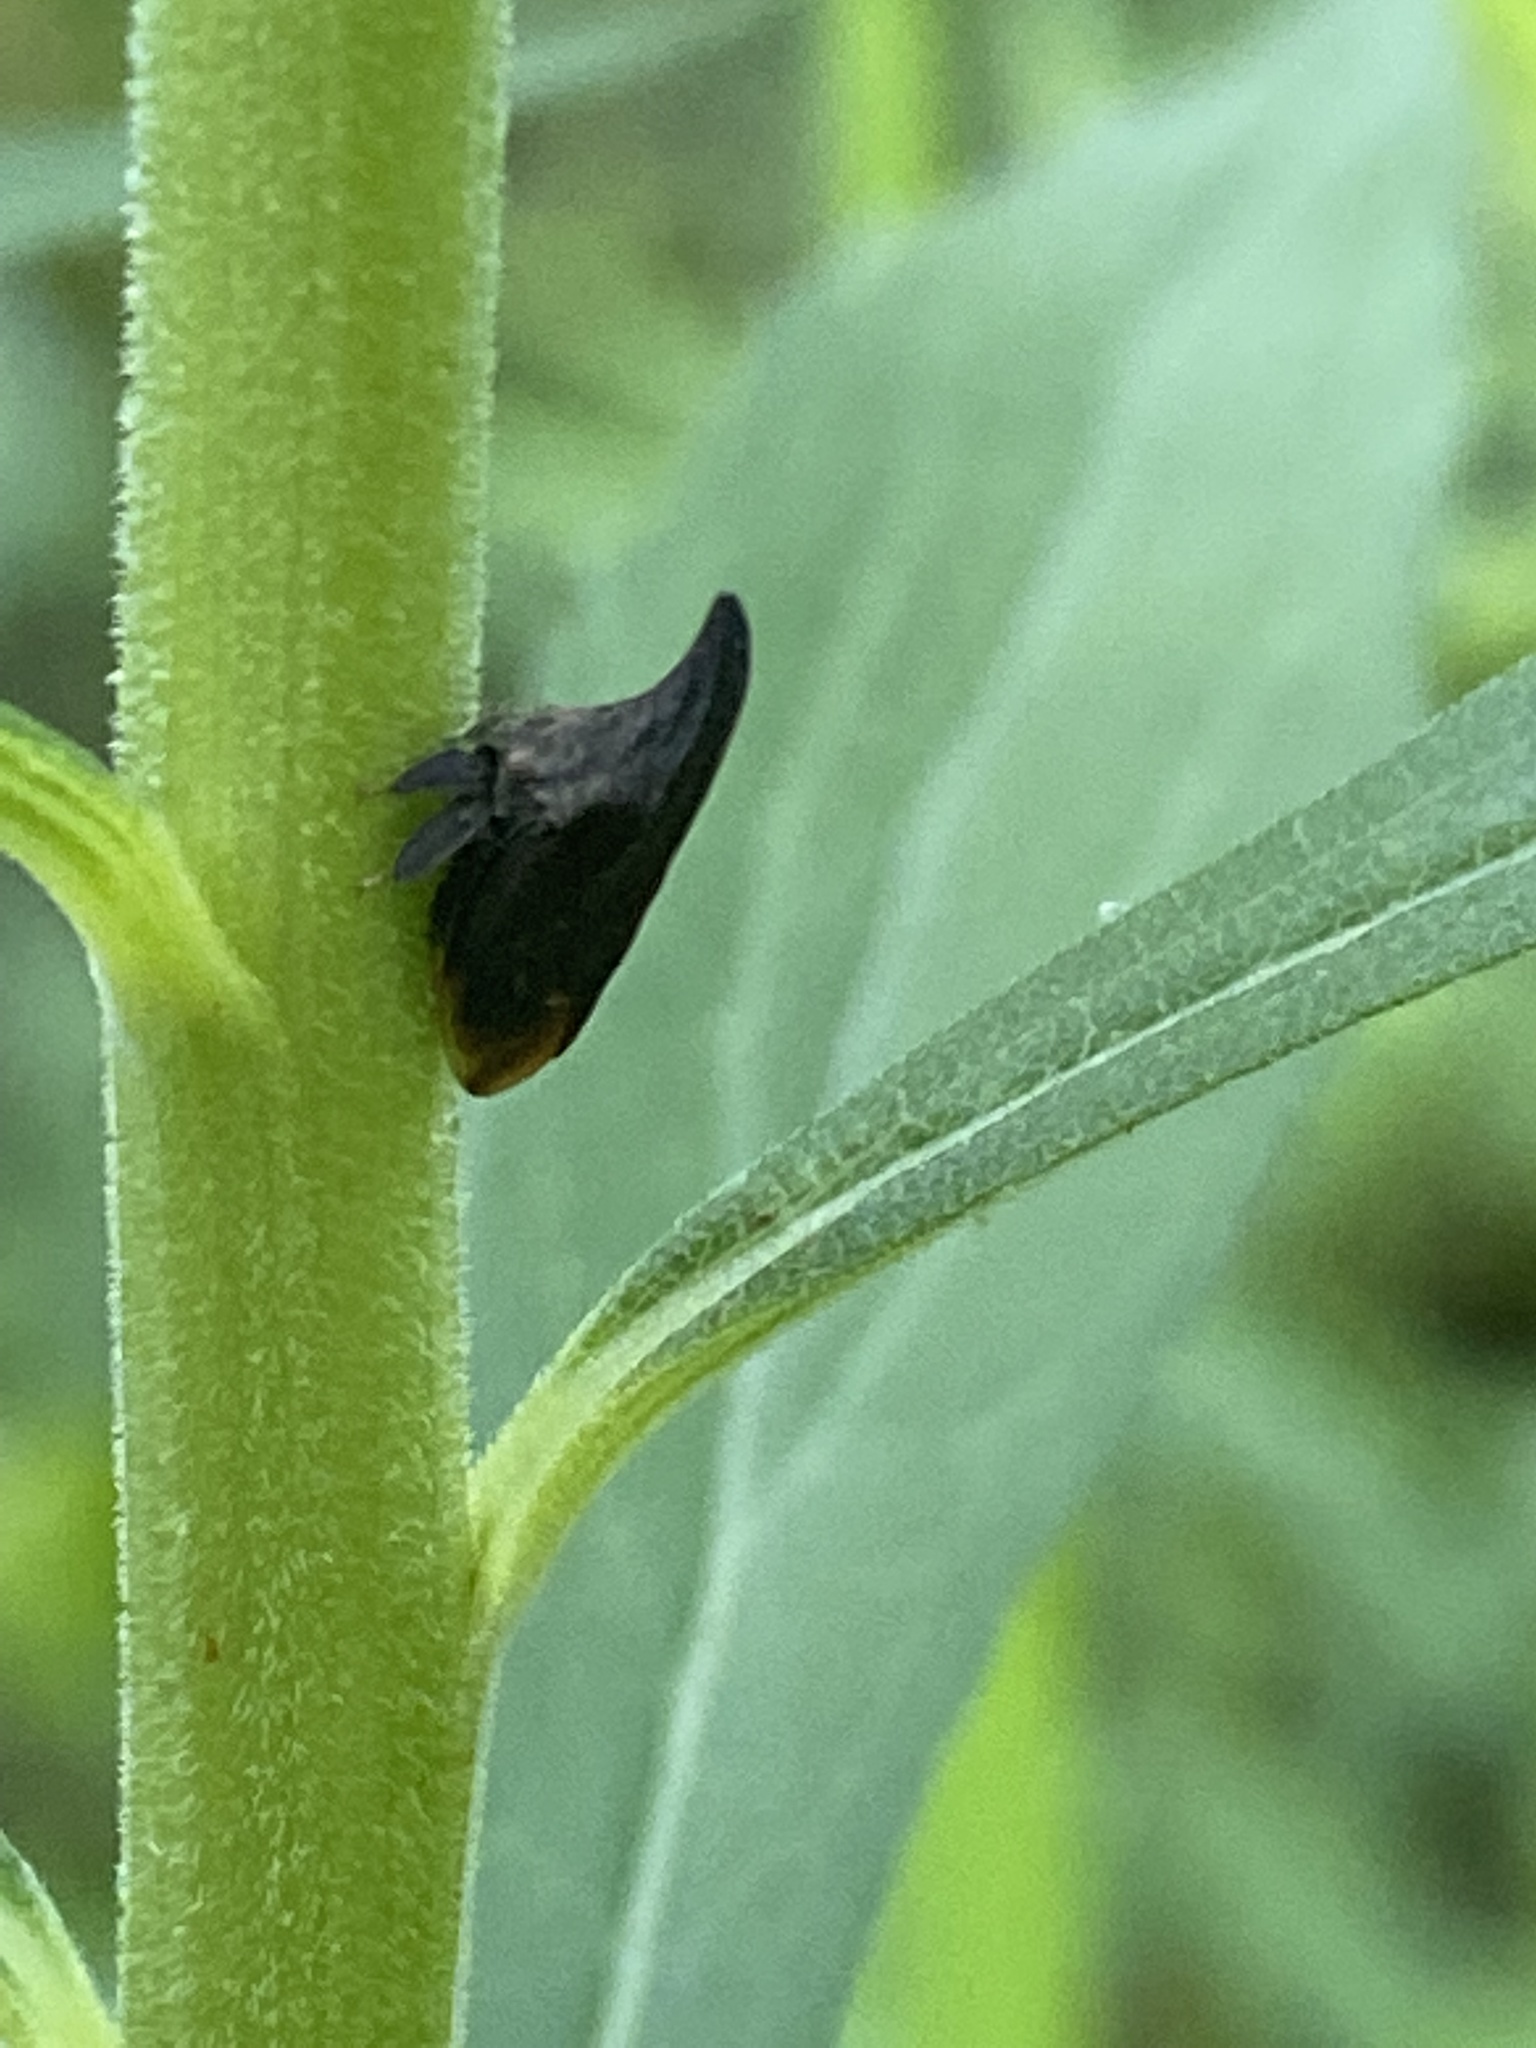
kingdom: Animalia
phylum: Arthropoda
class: Insecta
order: Hemiptera
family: Membracidae
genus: Enchenopa
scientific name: Enchenopa latipes
